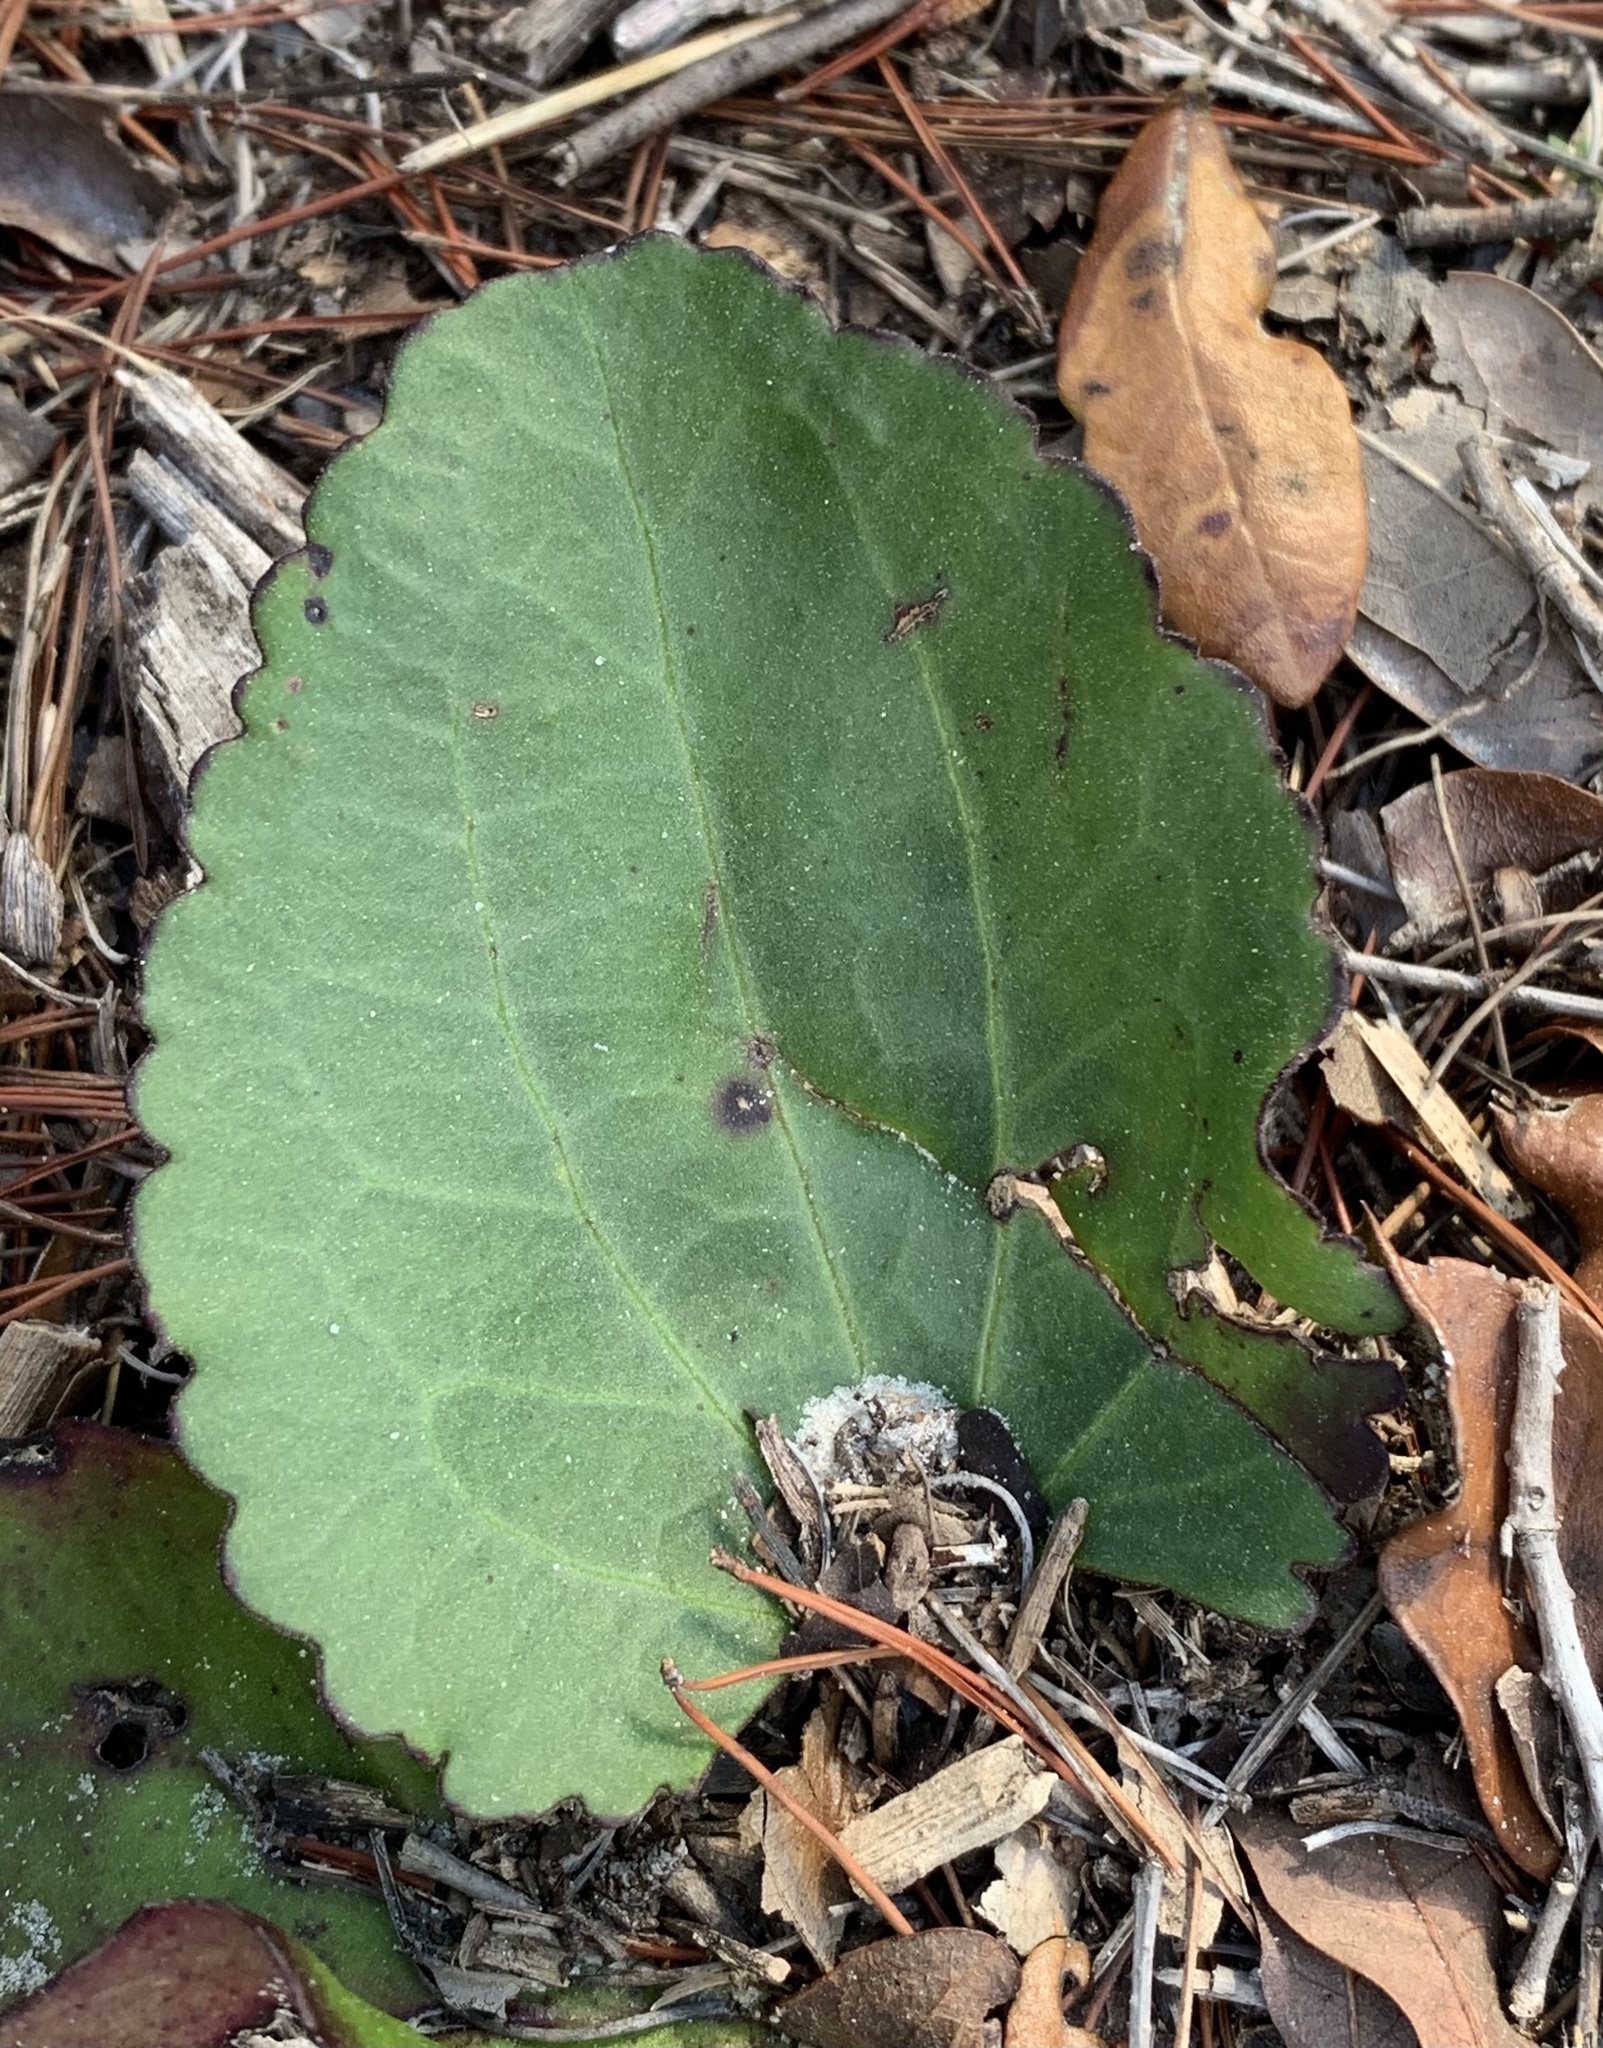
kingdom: Plantae
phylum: Tracheophyta
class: Magnoliopsida
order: Asterales
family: Asteraceae
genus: Arnoglossum
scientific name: Arnoglossum floridanum
